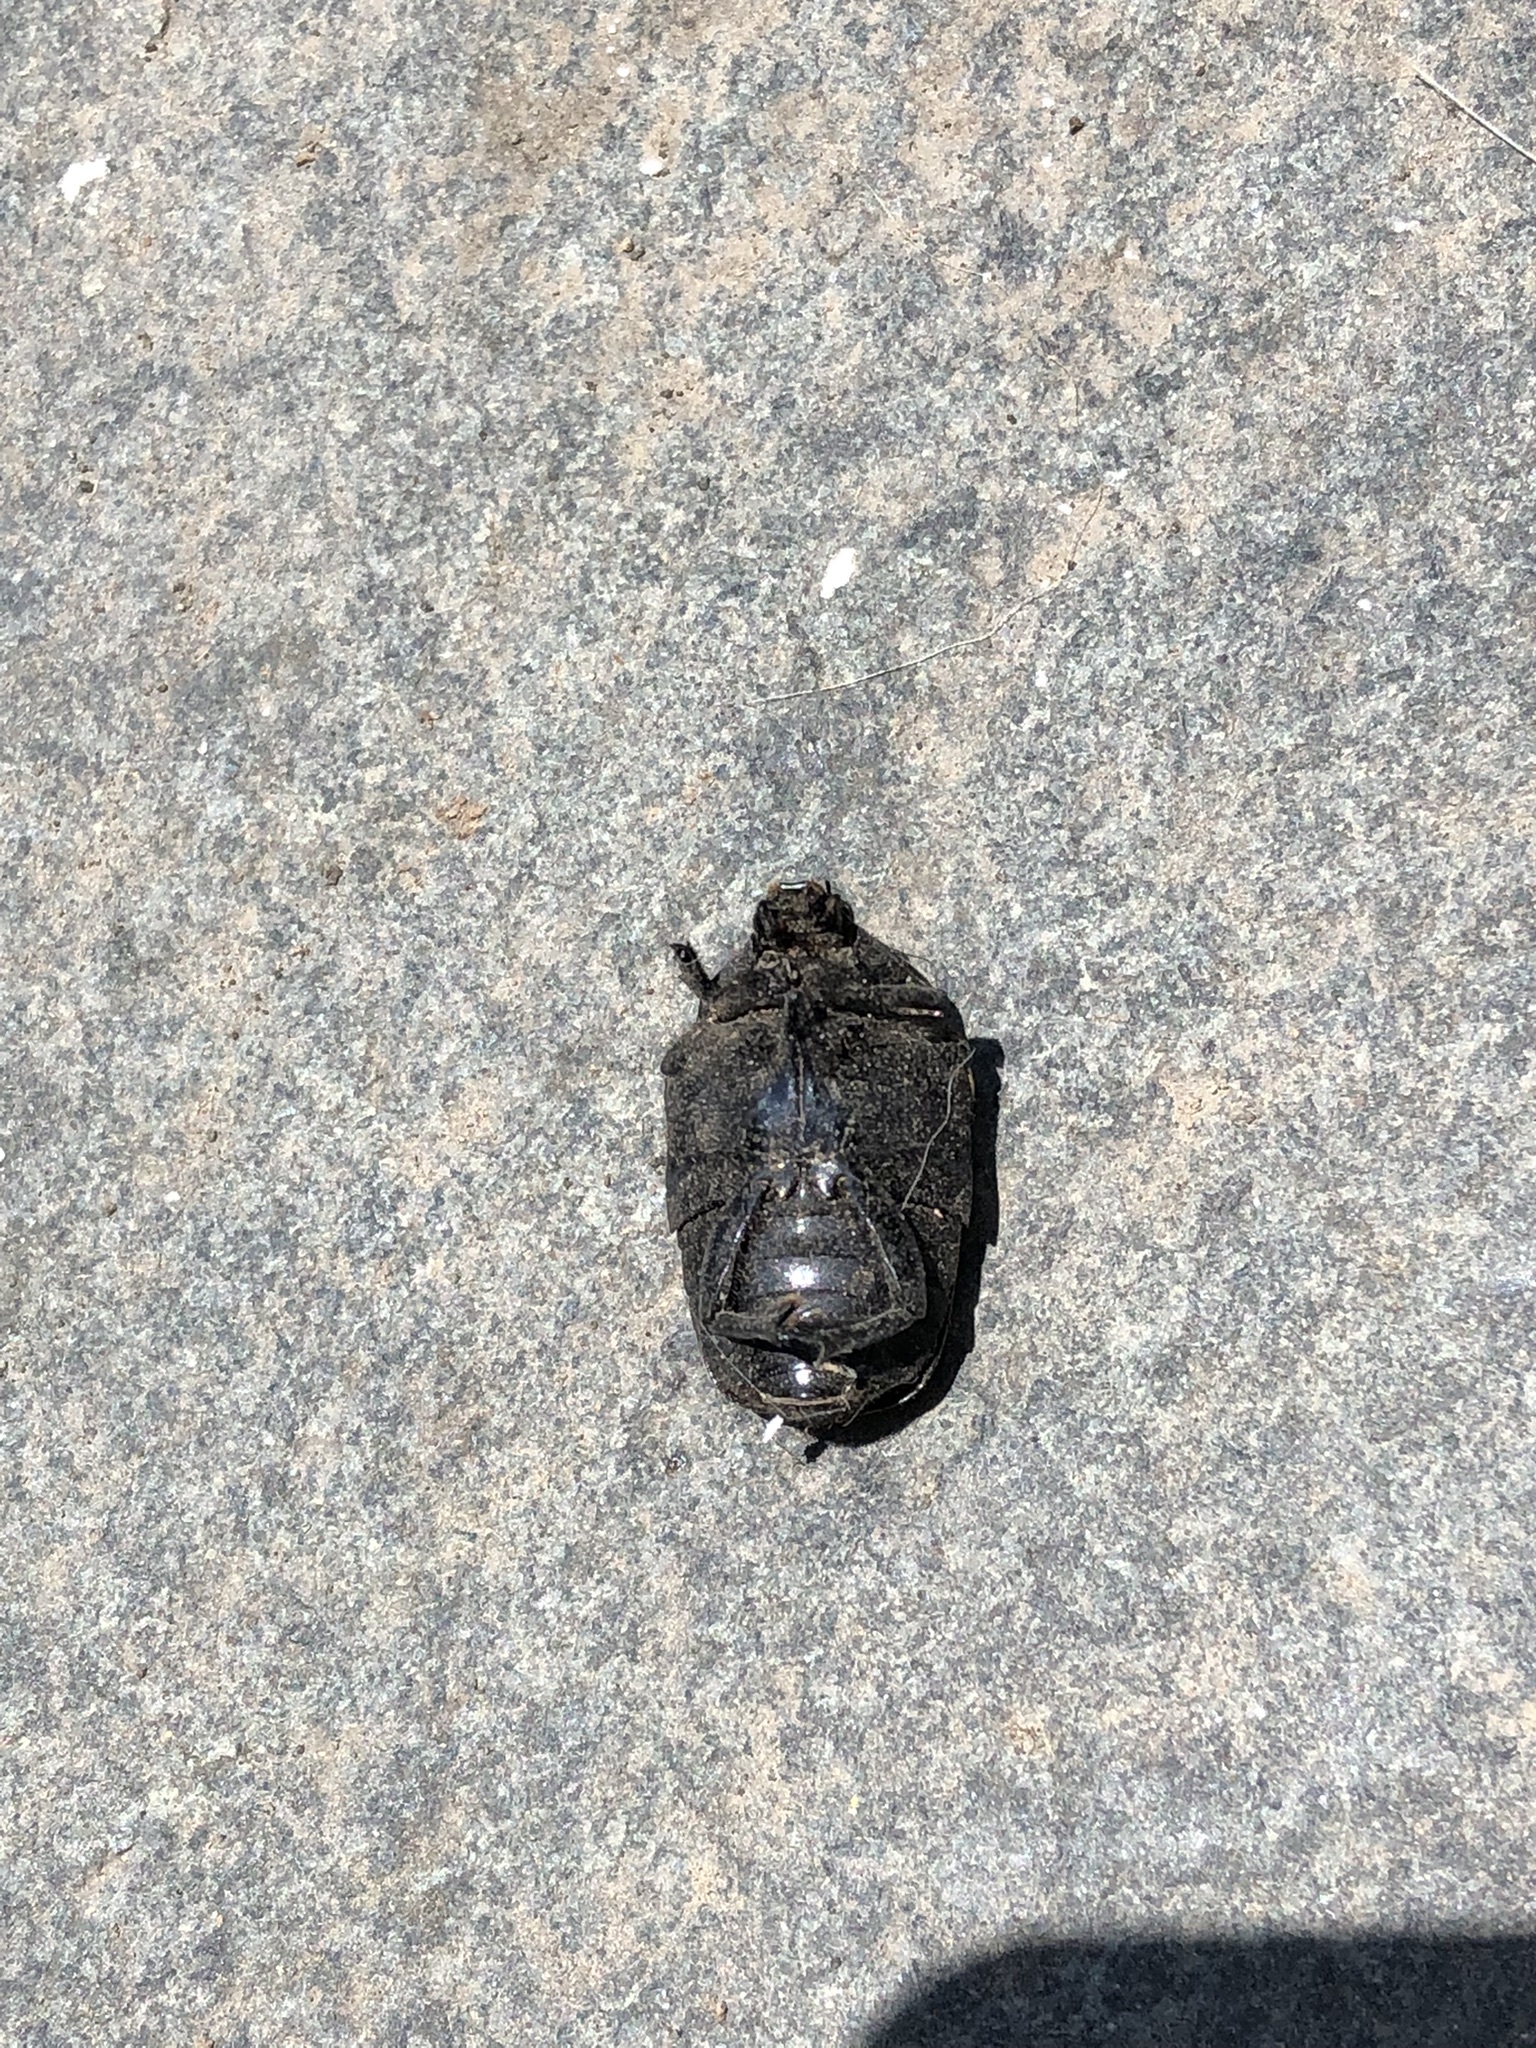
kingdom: Animalia
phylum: Arthropoda
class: Insecta
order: Coleoptera
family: Scarabaeidae
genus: Gymnetis
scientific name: Gymnetis merops
